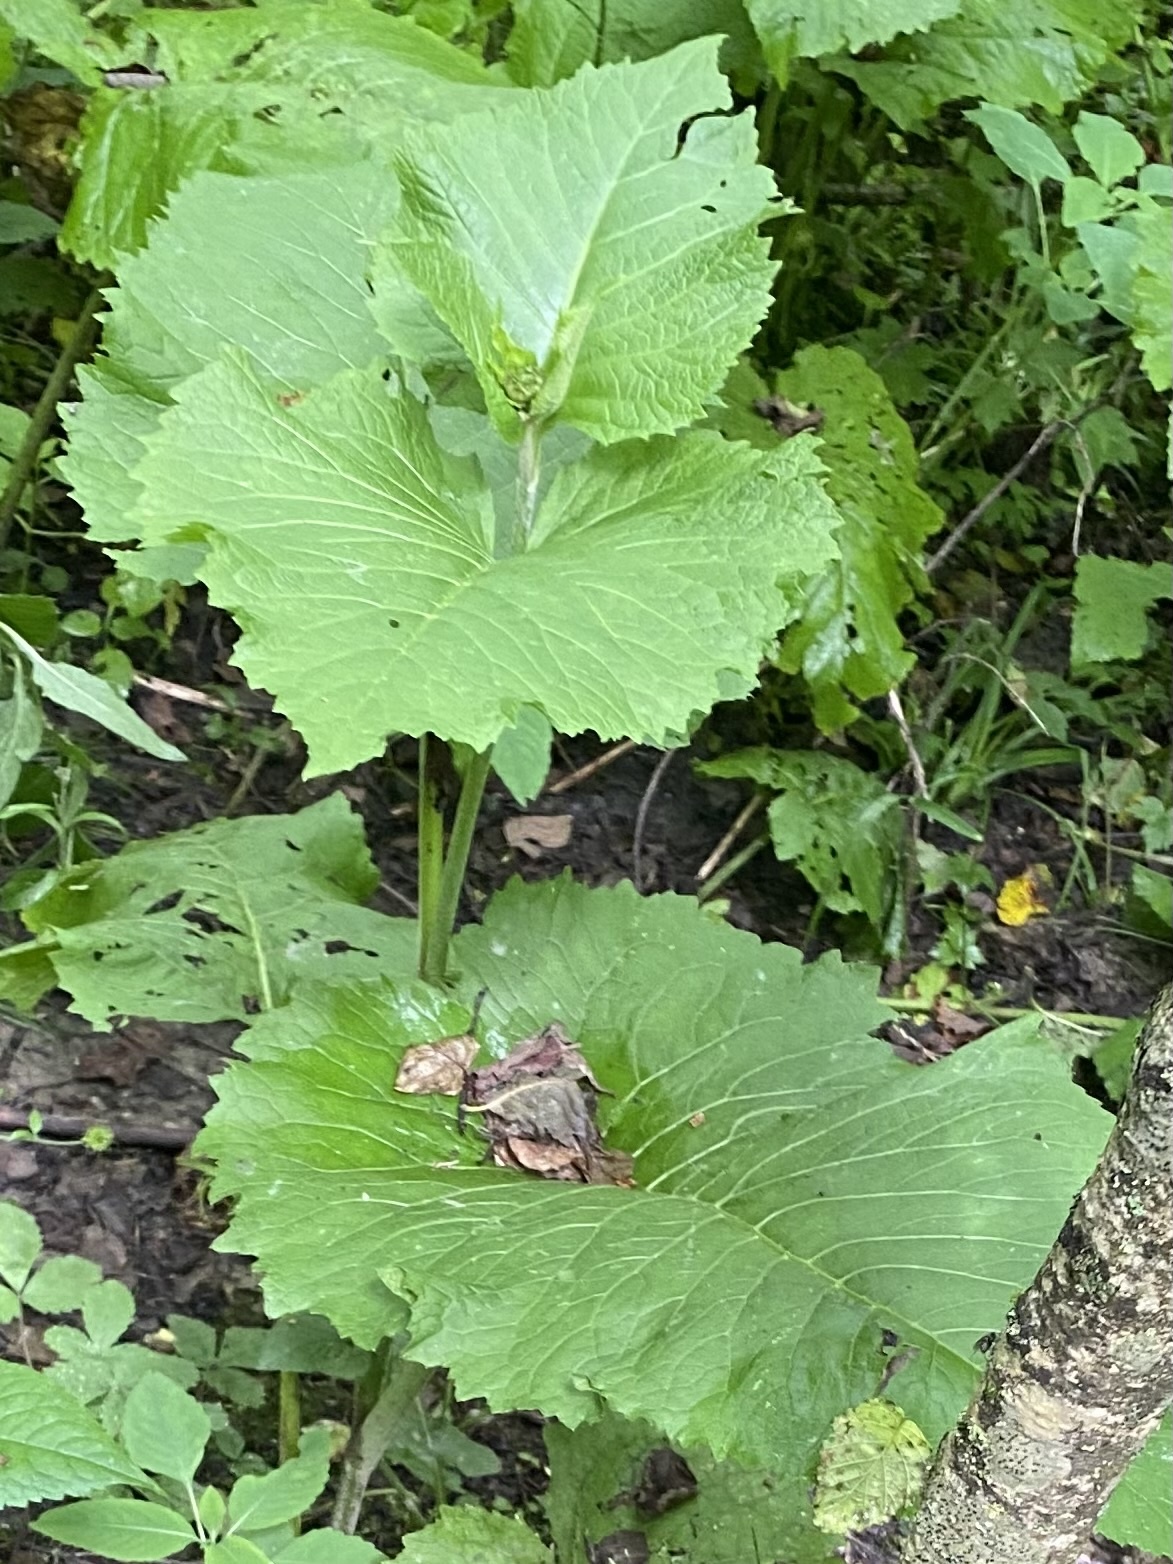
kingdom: Plantae
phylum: Tracheophyta
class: Magnoliopsida
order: Asterales
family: Asteraceae
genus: Telekia
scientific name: Telekia speciosa
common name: Yellow oxeye
